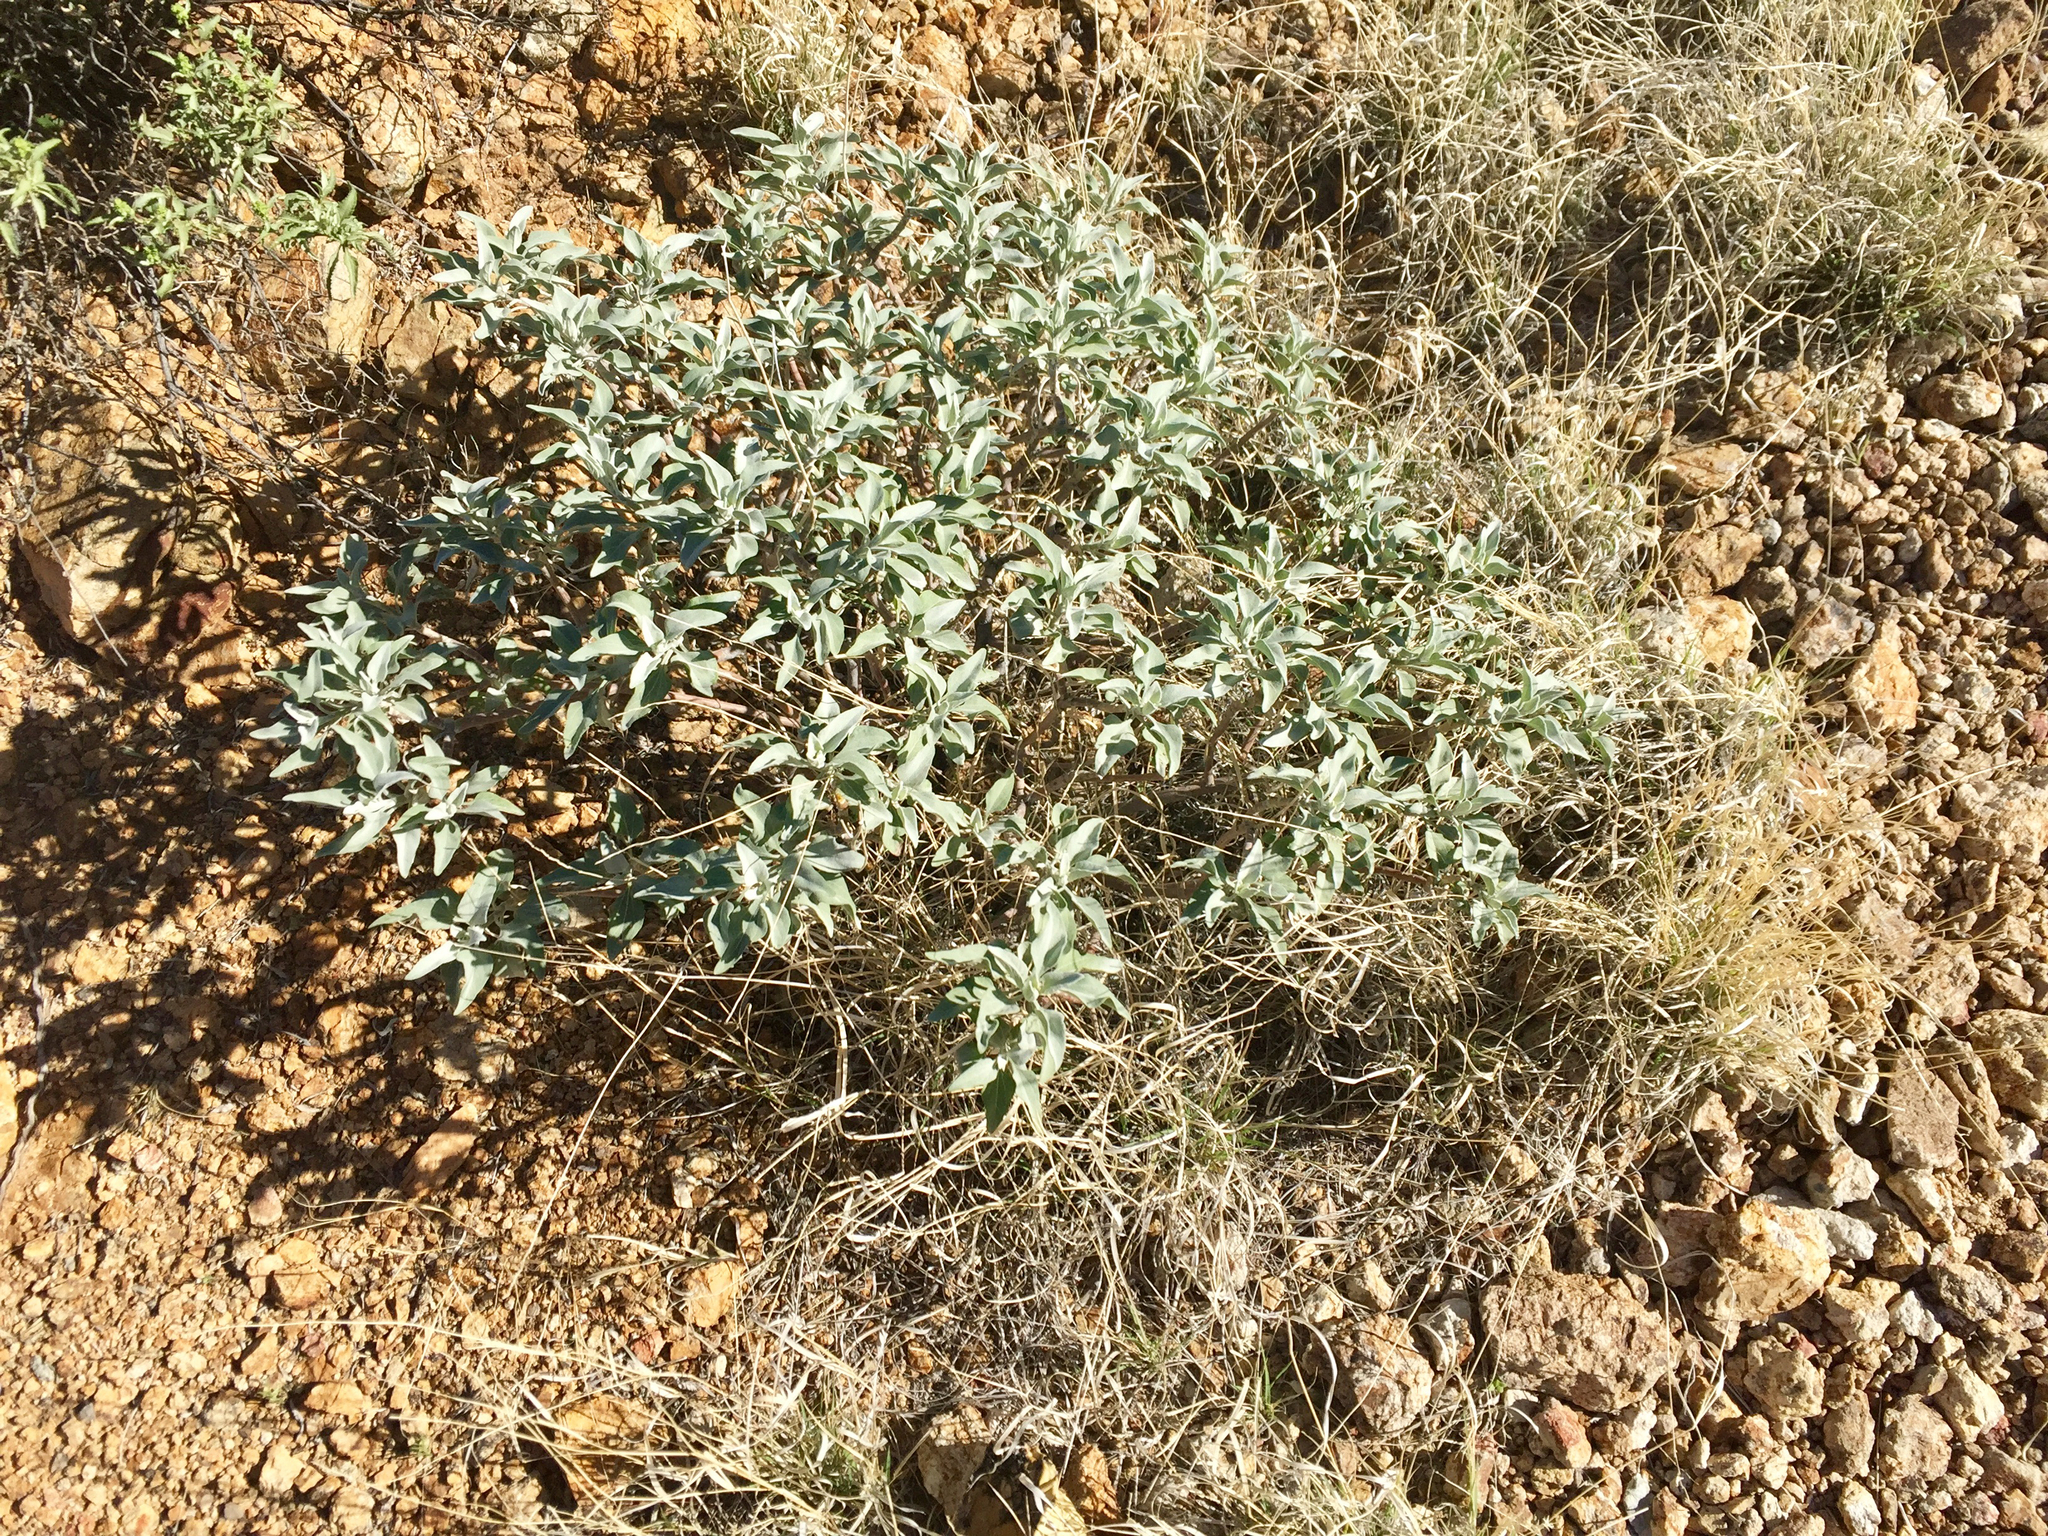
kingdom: Plantae
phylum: Tracheophyta
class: Magnoliopsida
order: Asterales
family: Asteraceae
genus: Encelia
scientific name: Encelia farinosa
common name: Brittlebush
